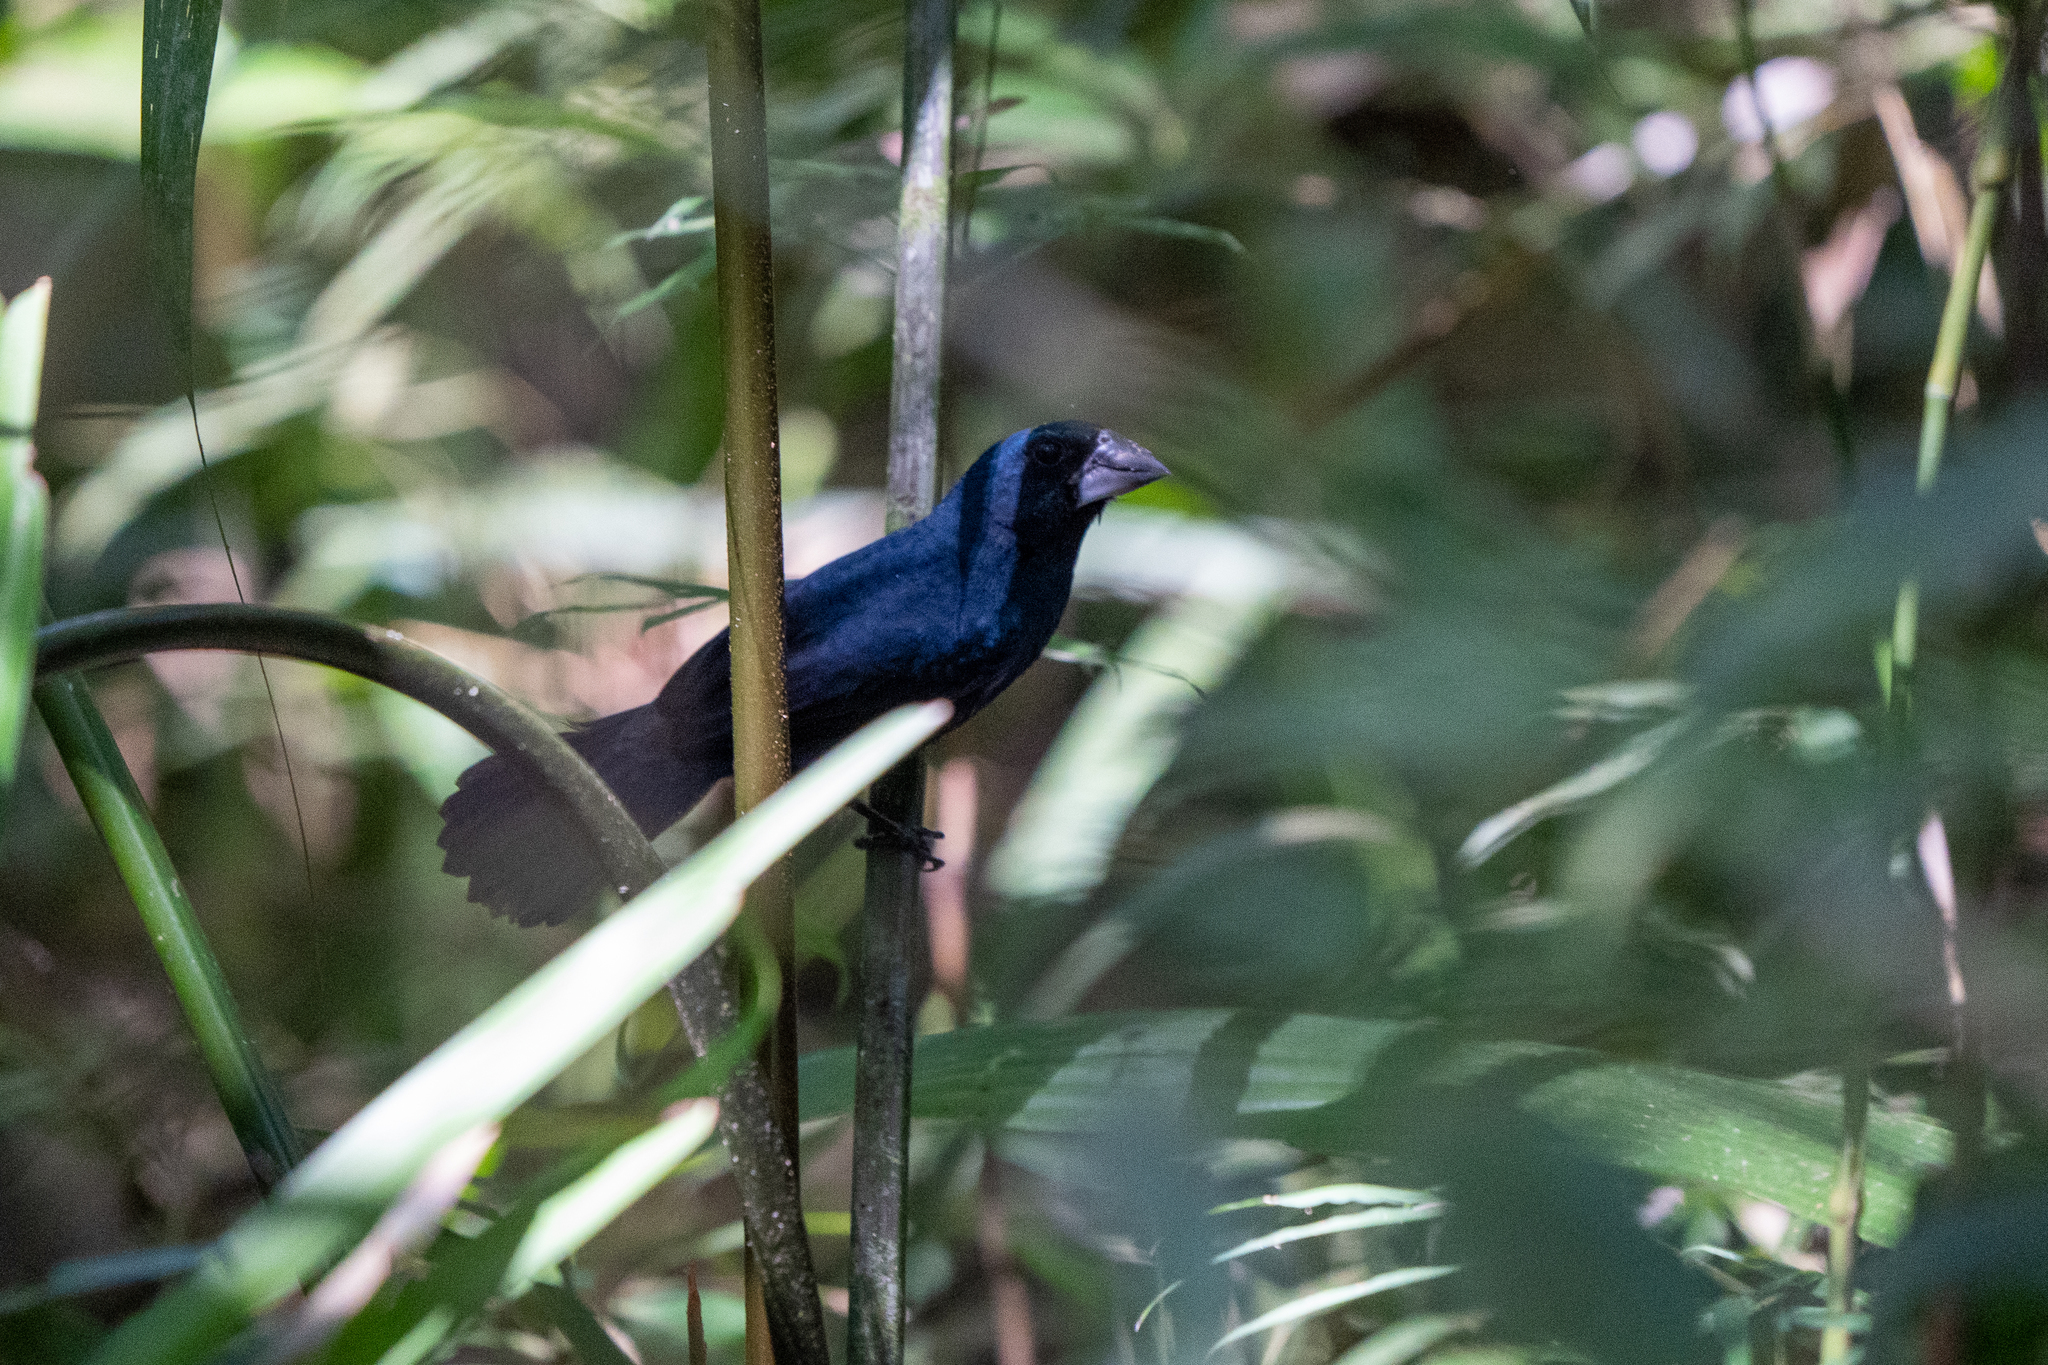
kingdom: Animalia
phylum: Chordata
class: Aves
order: Passeriformes
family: Cardinalidae
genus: Cyanocompsa
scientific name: Cyanocompsa cyanoides
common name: Blue-black grosbeak
